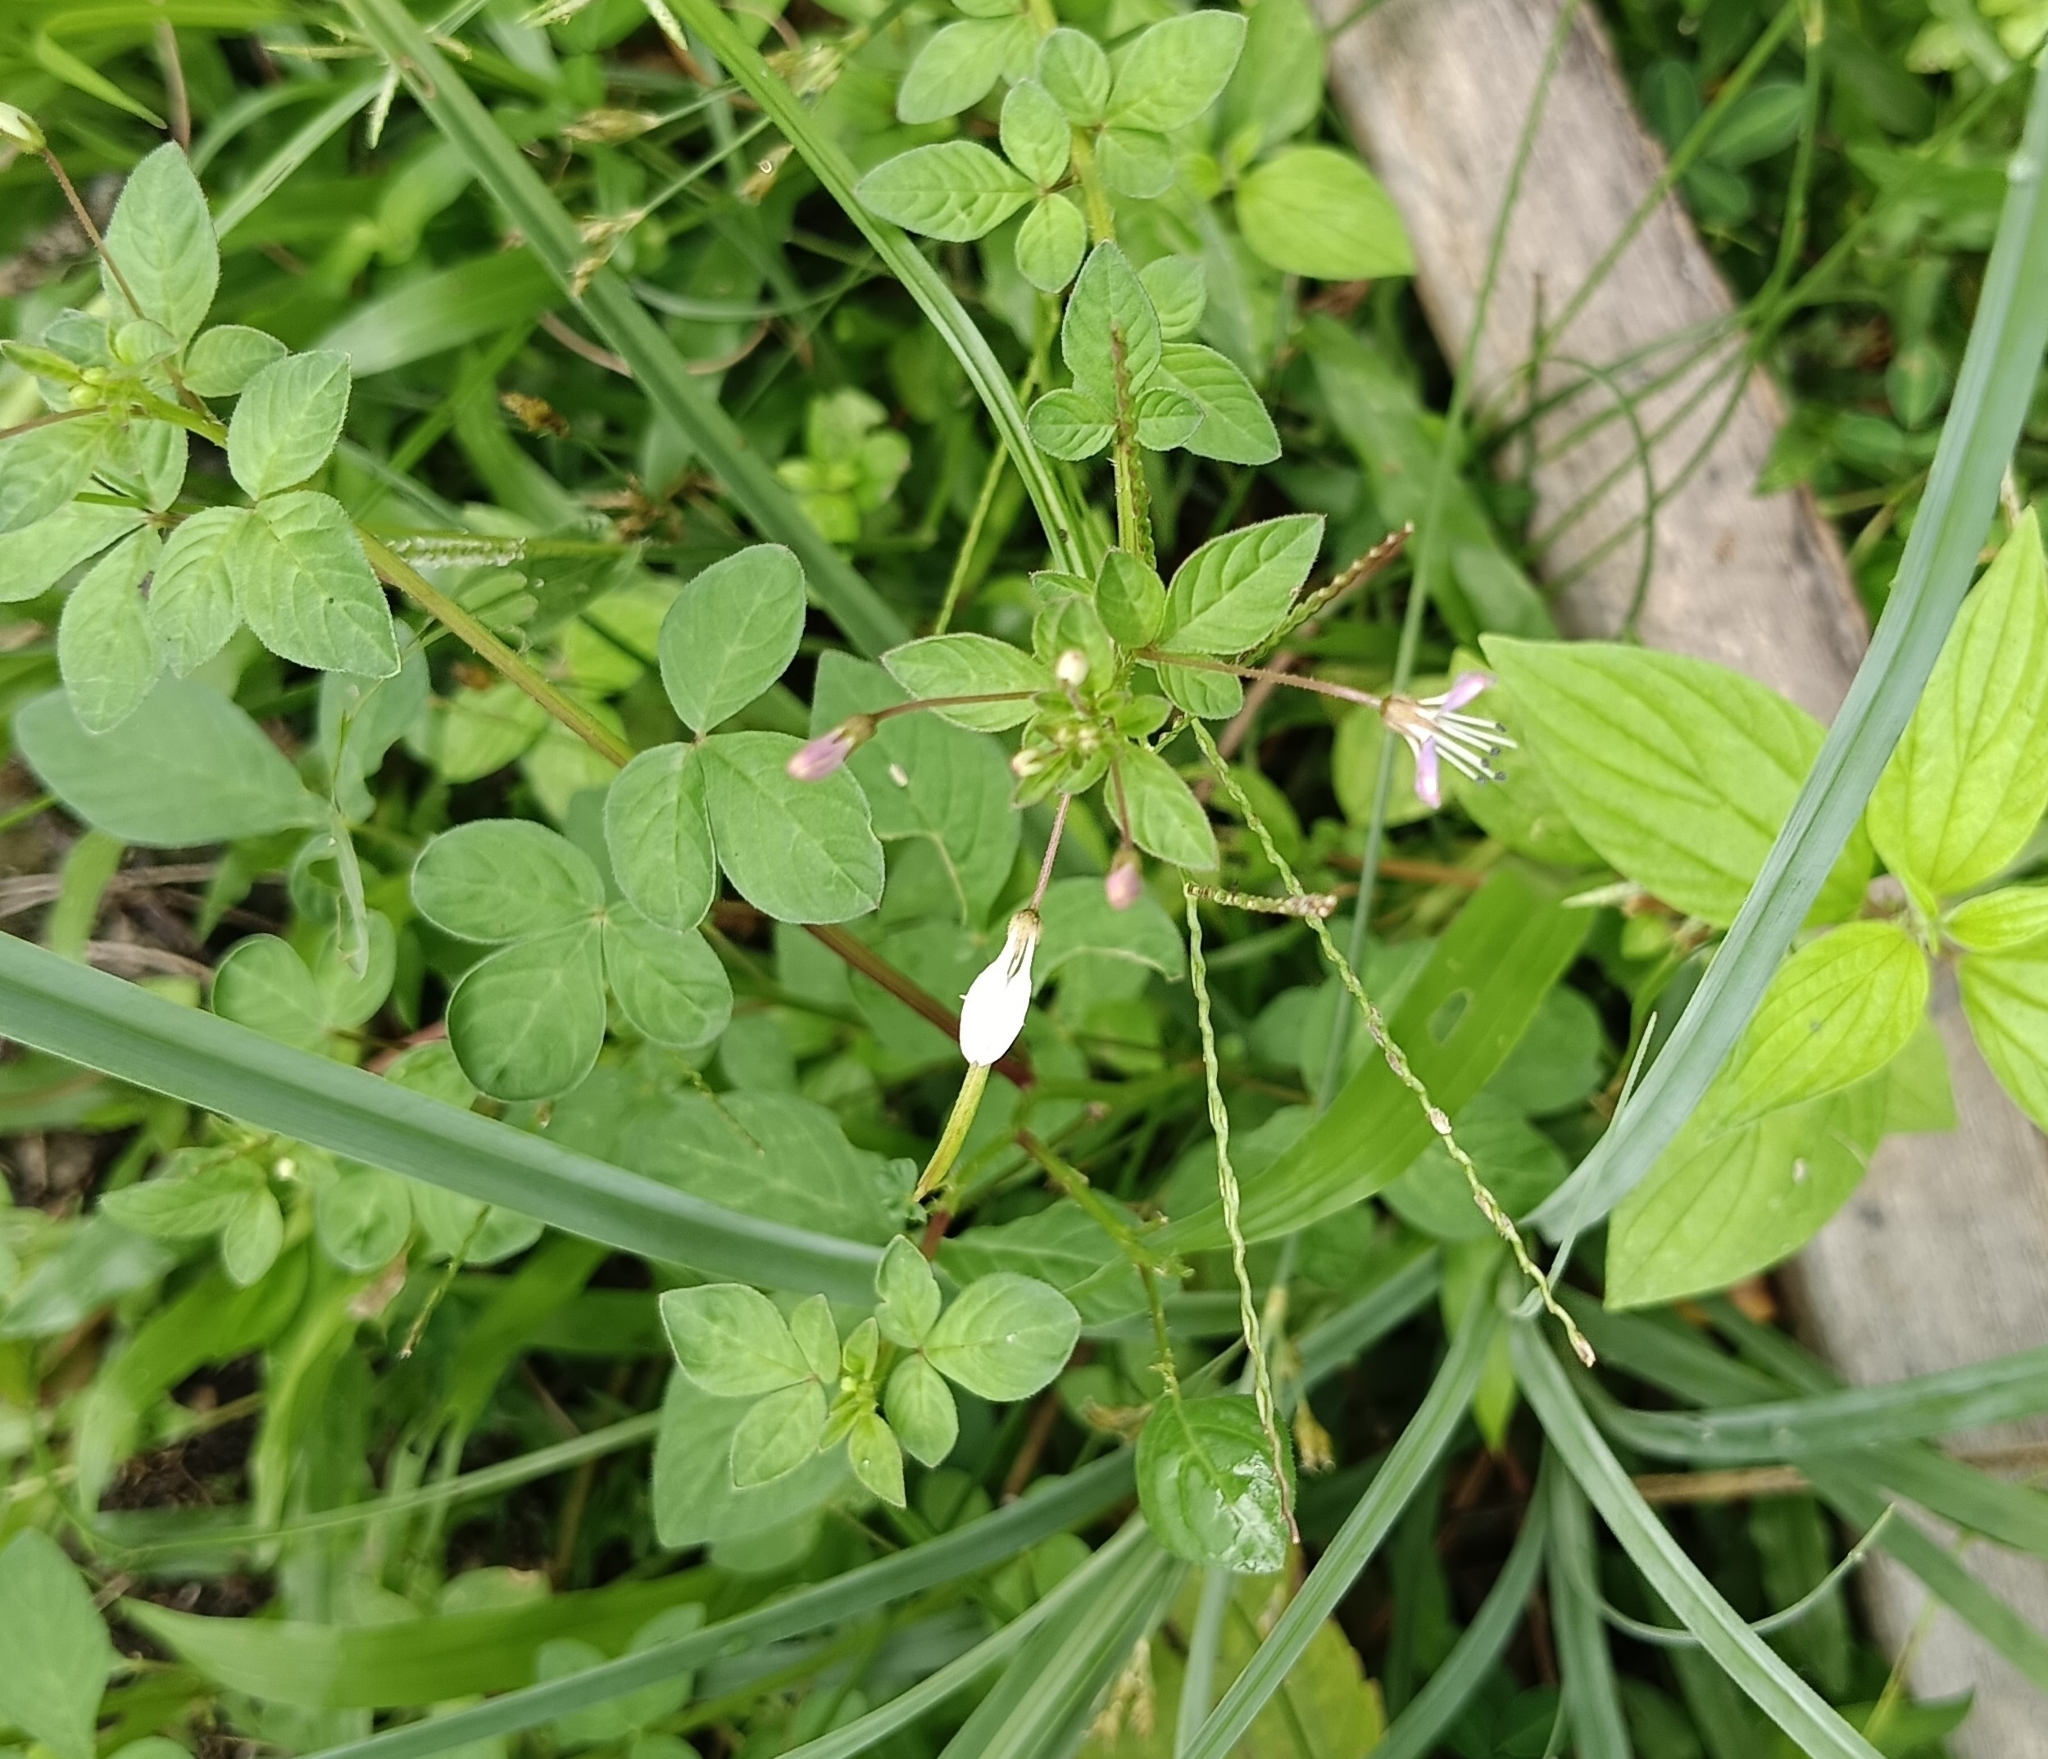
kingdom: Plantae
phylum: Tracheophyta
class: Magnoliopsida
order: Brassicales
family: Cleomaceae
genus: Sieruela
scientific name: Sieruela rutidosperma
